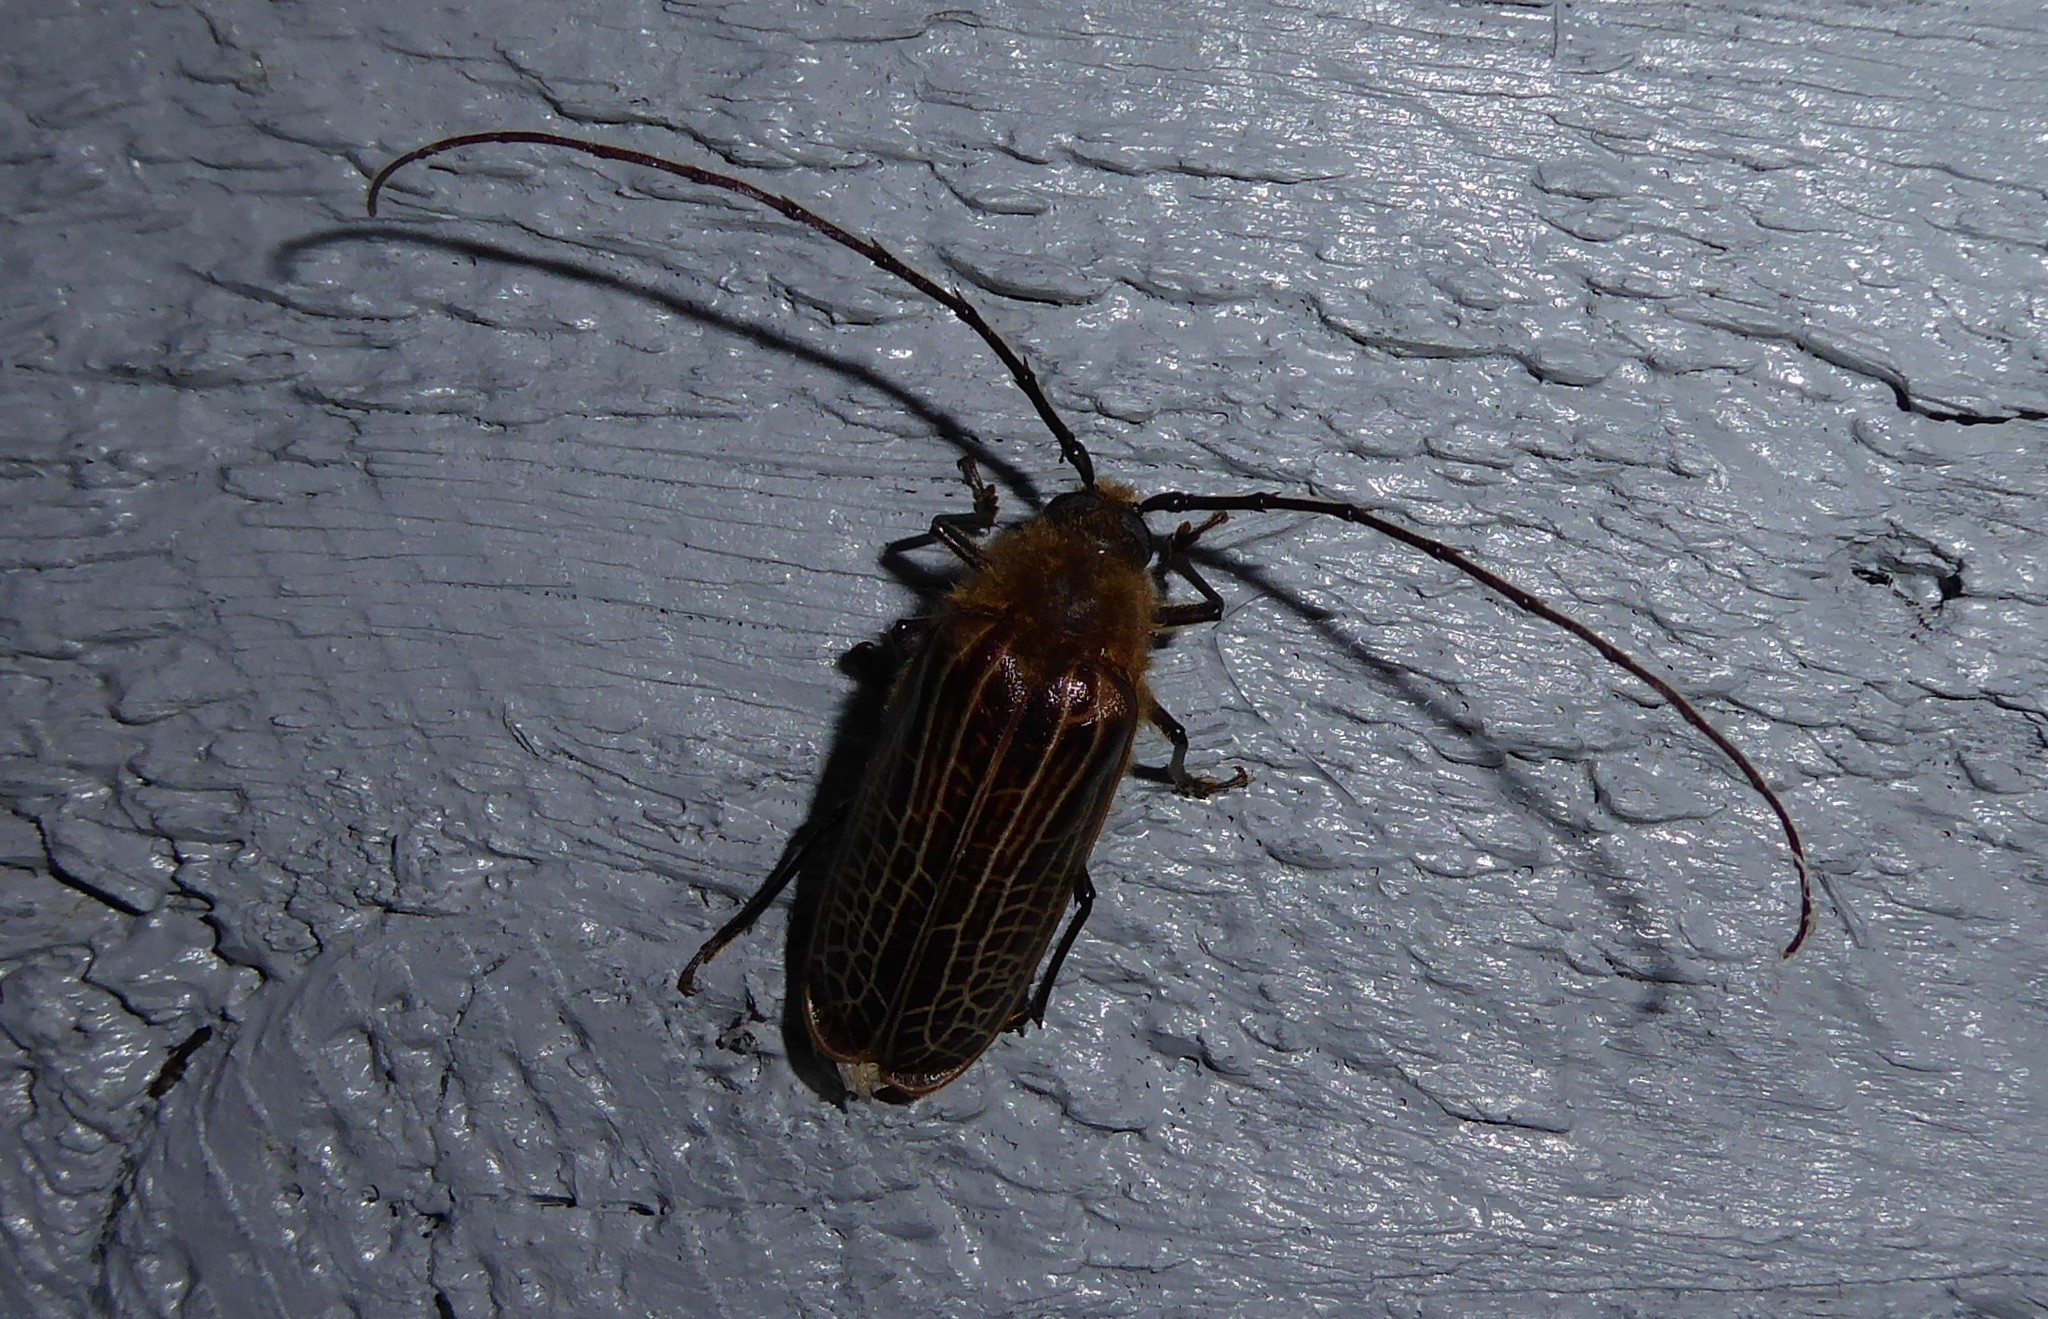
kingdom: Animalia
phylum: Arthropoda
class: Insecta
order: Coleoptera
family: Cerambycidae
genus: Prionoplus
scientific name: Prionoplus reticularis
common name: Huhu beetle
